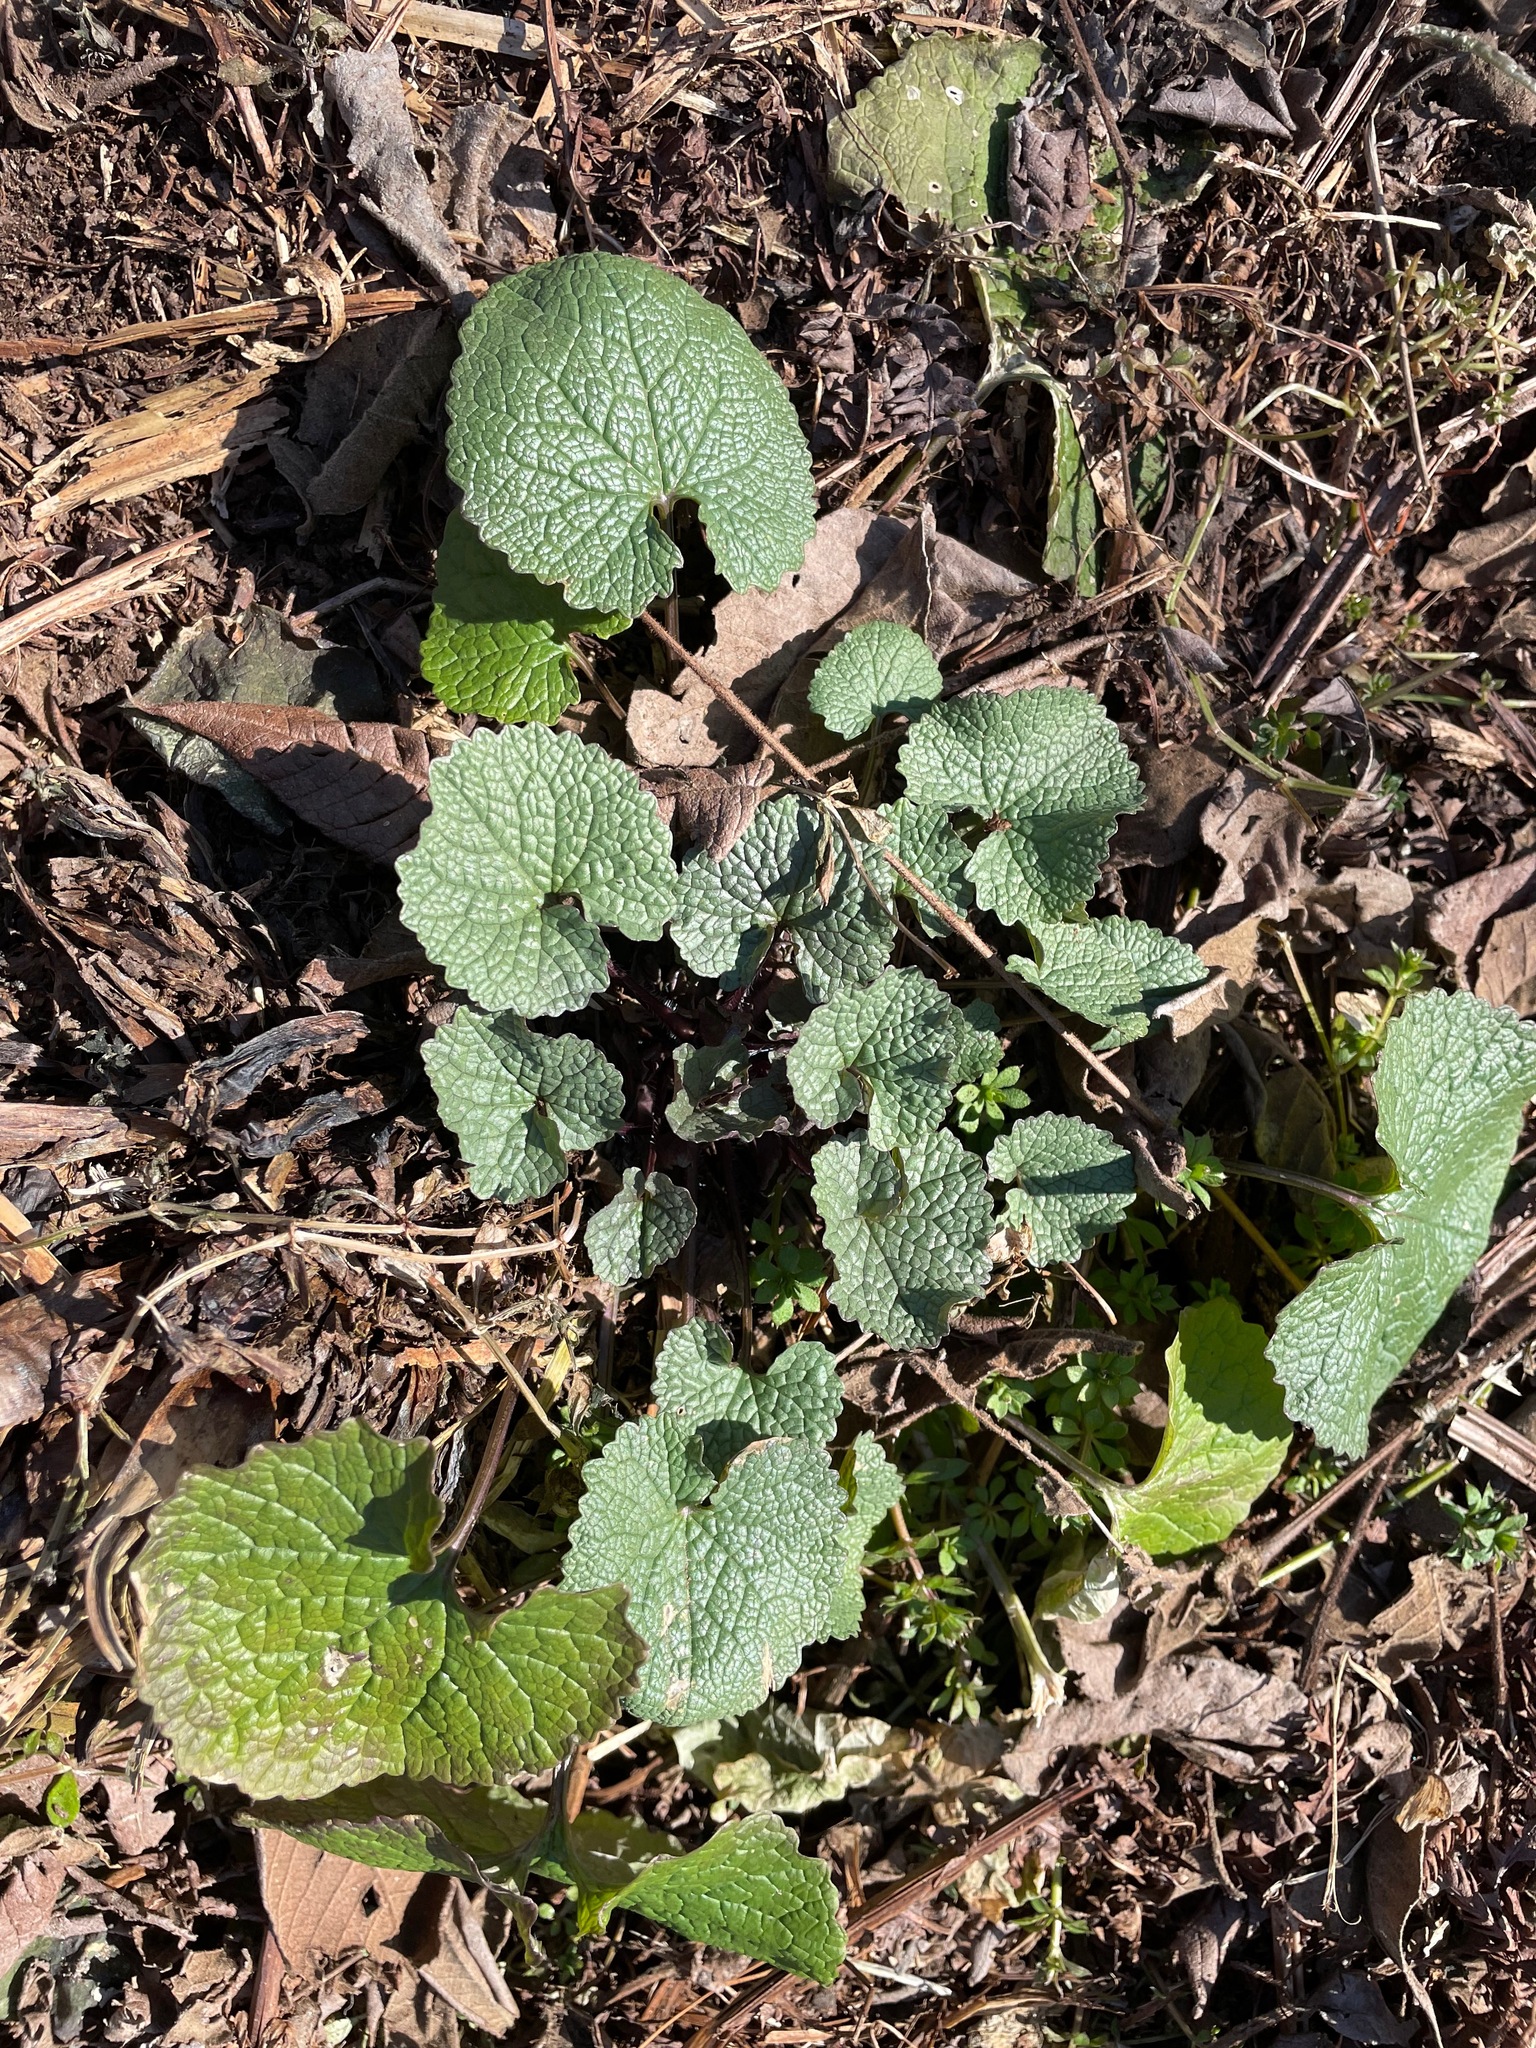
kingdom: Plantae
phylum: Tracheophyta
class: Magnoliopsida
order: Brassicales
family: Brassicaceae
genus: Alliaria
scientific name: Alliaria petiolata
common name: Garlic mustard
